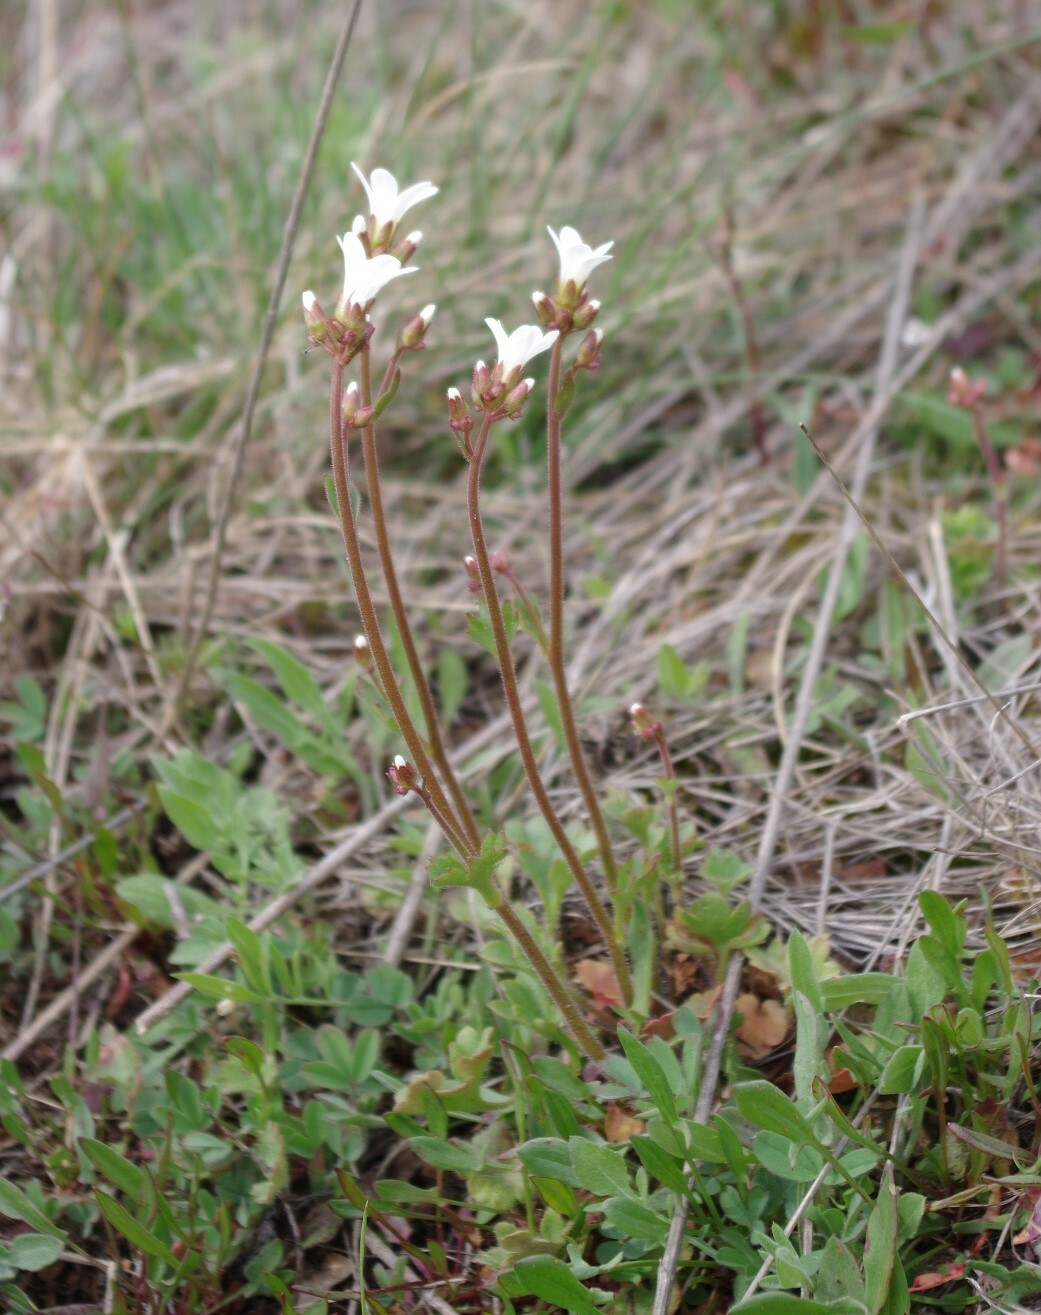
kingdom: Plantae
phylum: Tracheophyta
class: Magnoliopsida
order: Saxifragales
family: Saxifragaceae
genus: Saxifraga
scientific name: Saxifraga granulata
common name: Meadow saxifrage
